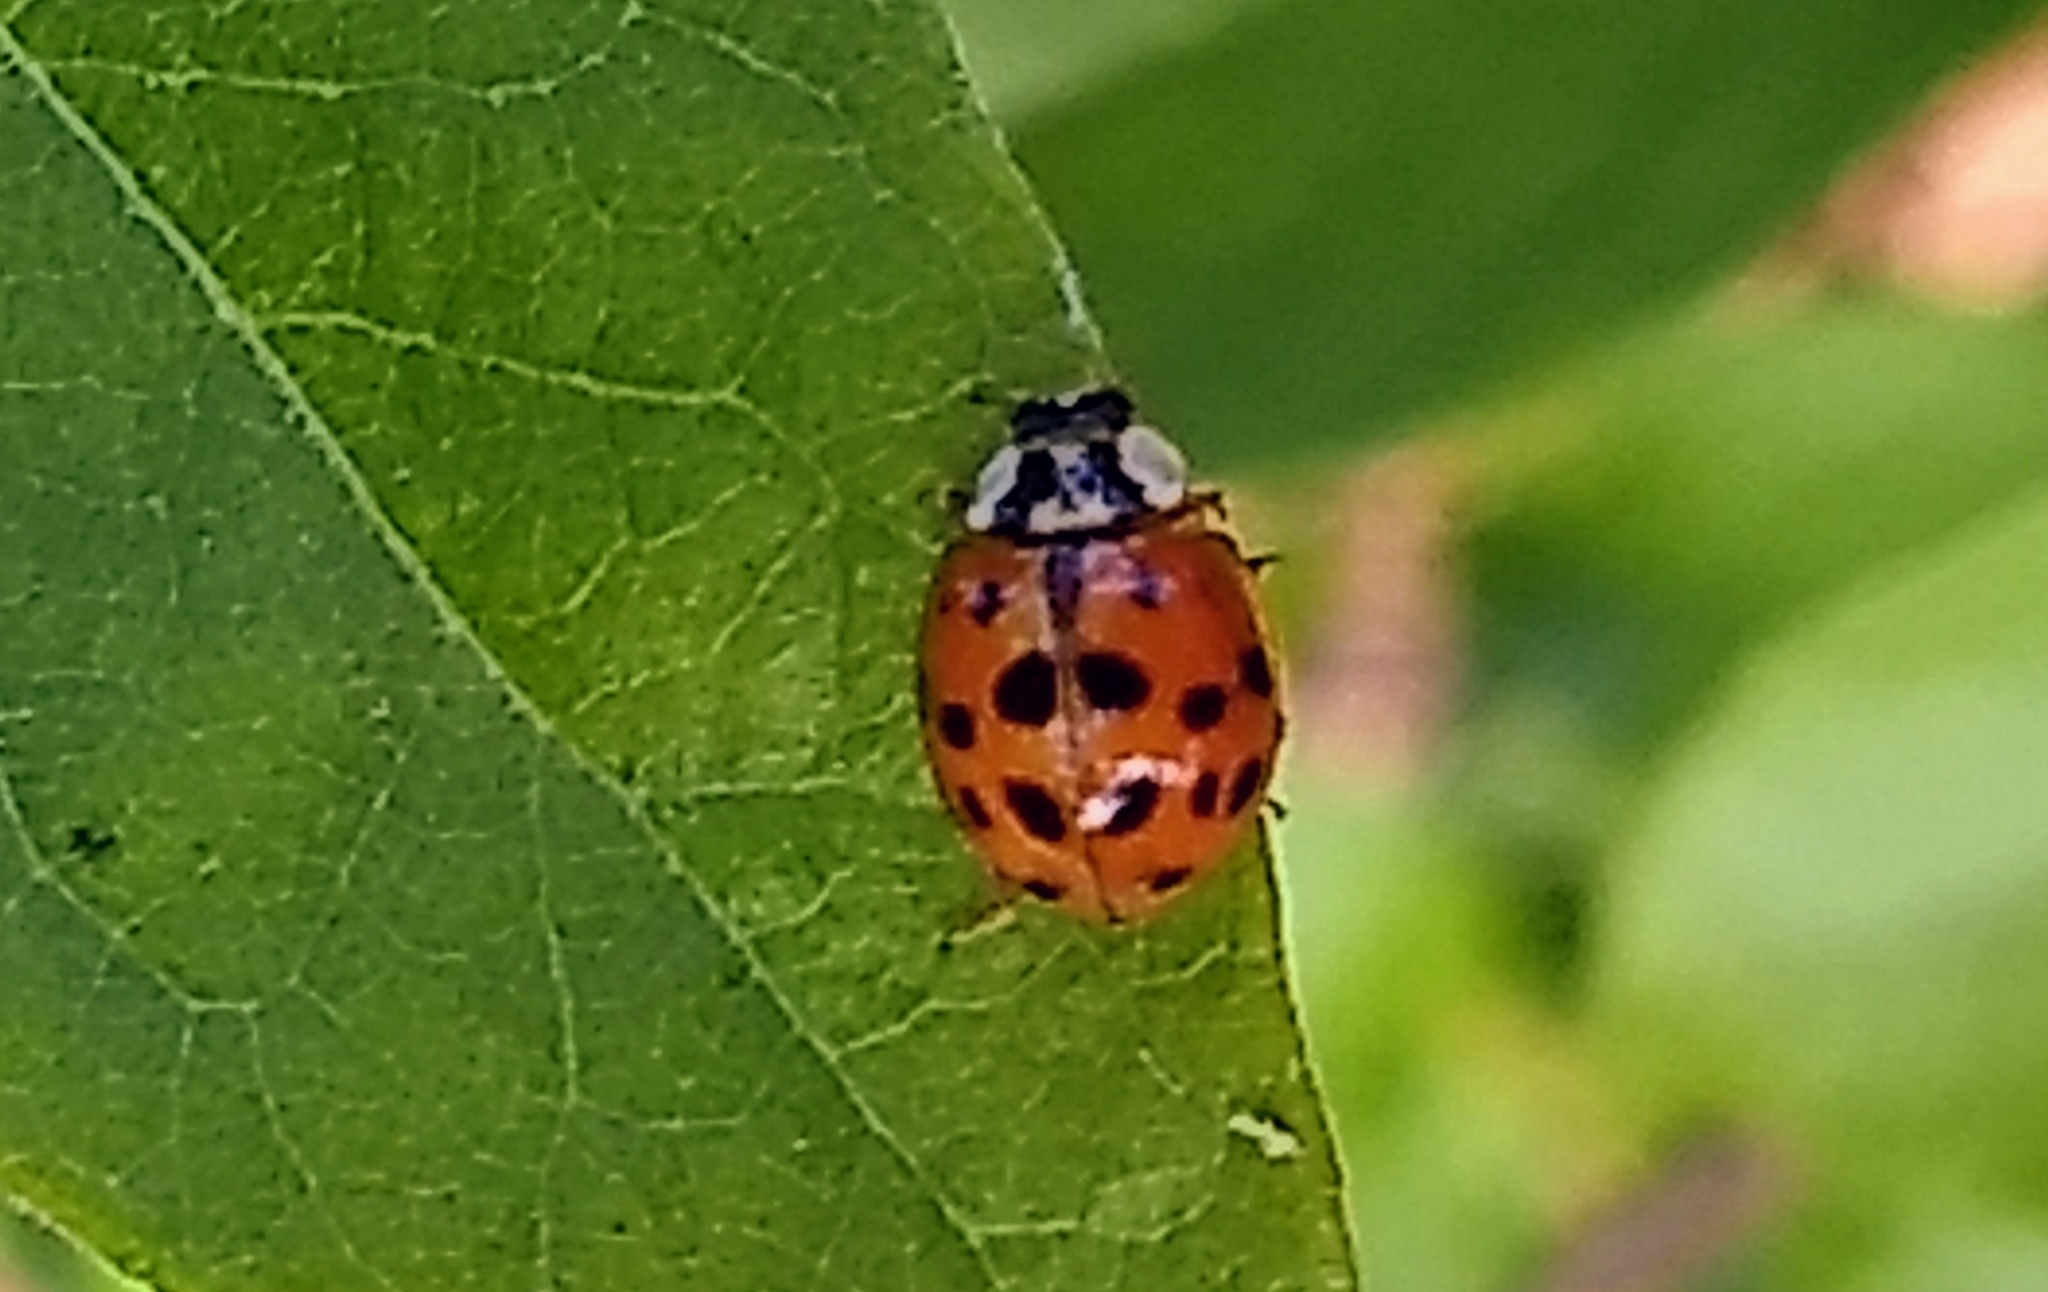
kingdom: Animalia
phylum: Arthropoda
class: Insecta
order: Coleoptera
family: Coccinellidae
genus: Harmonia
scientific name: Harmonia axyridis
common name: Harlequin ladybird
